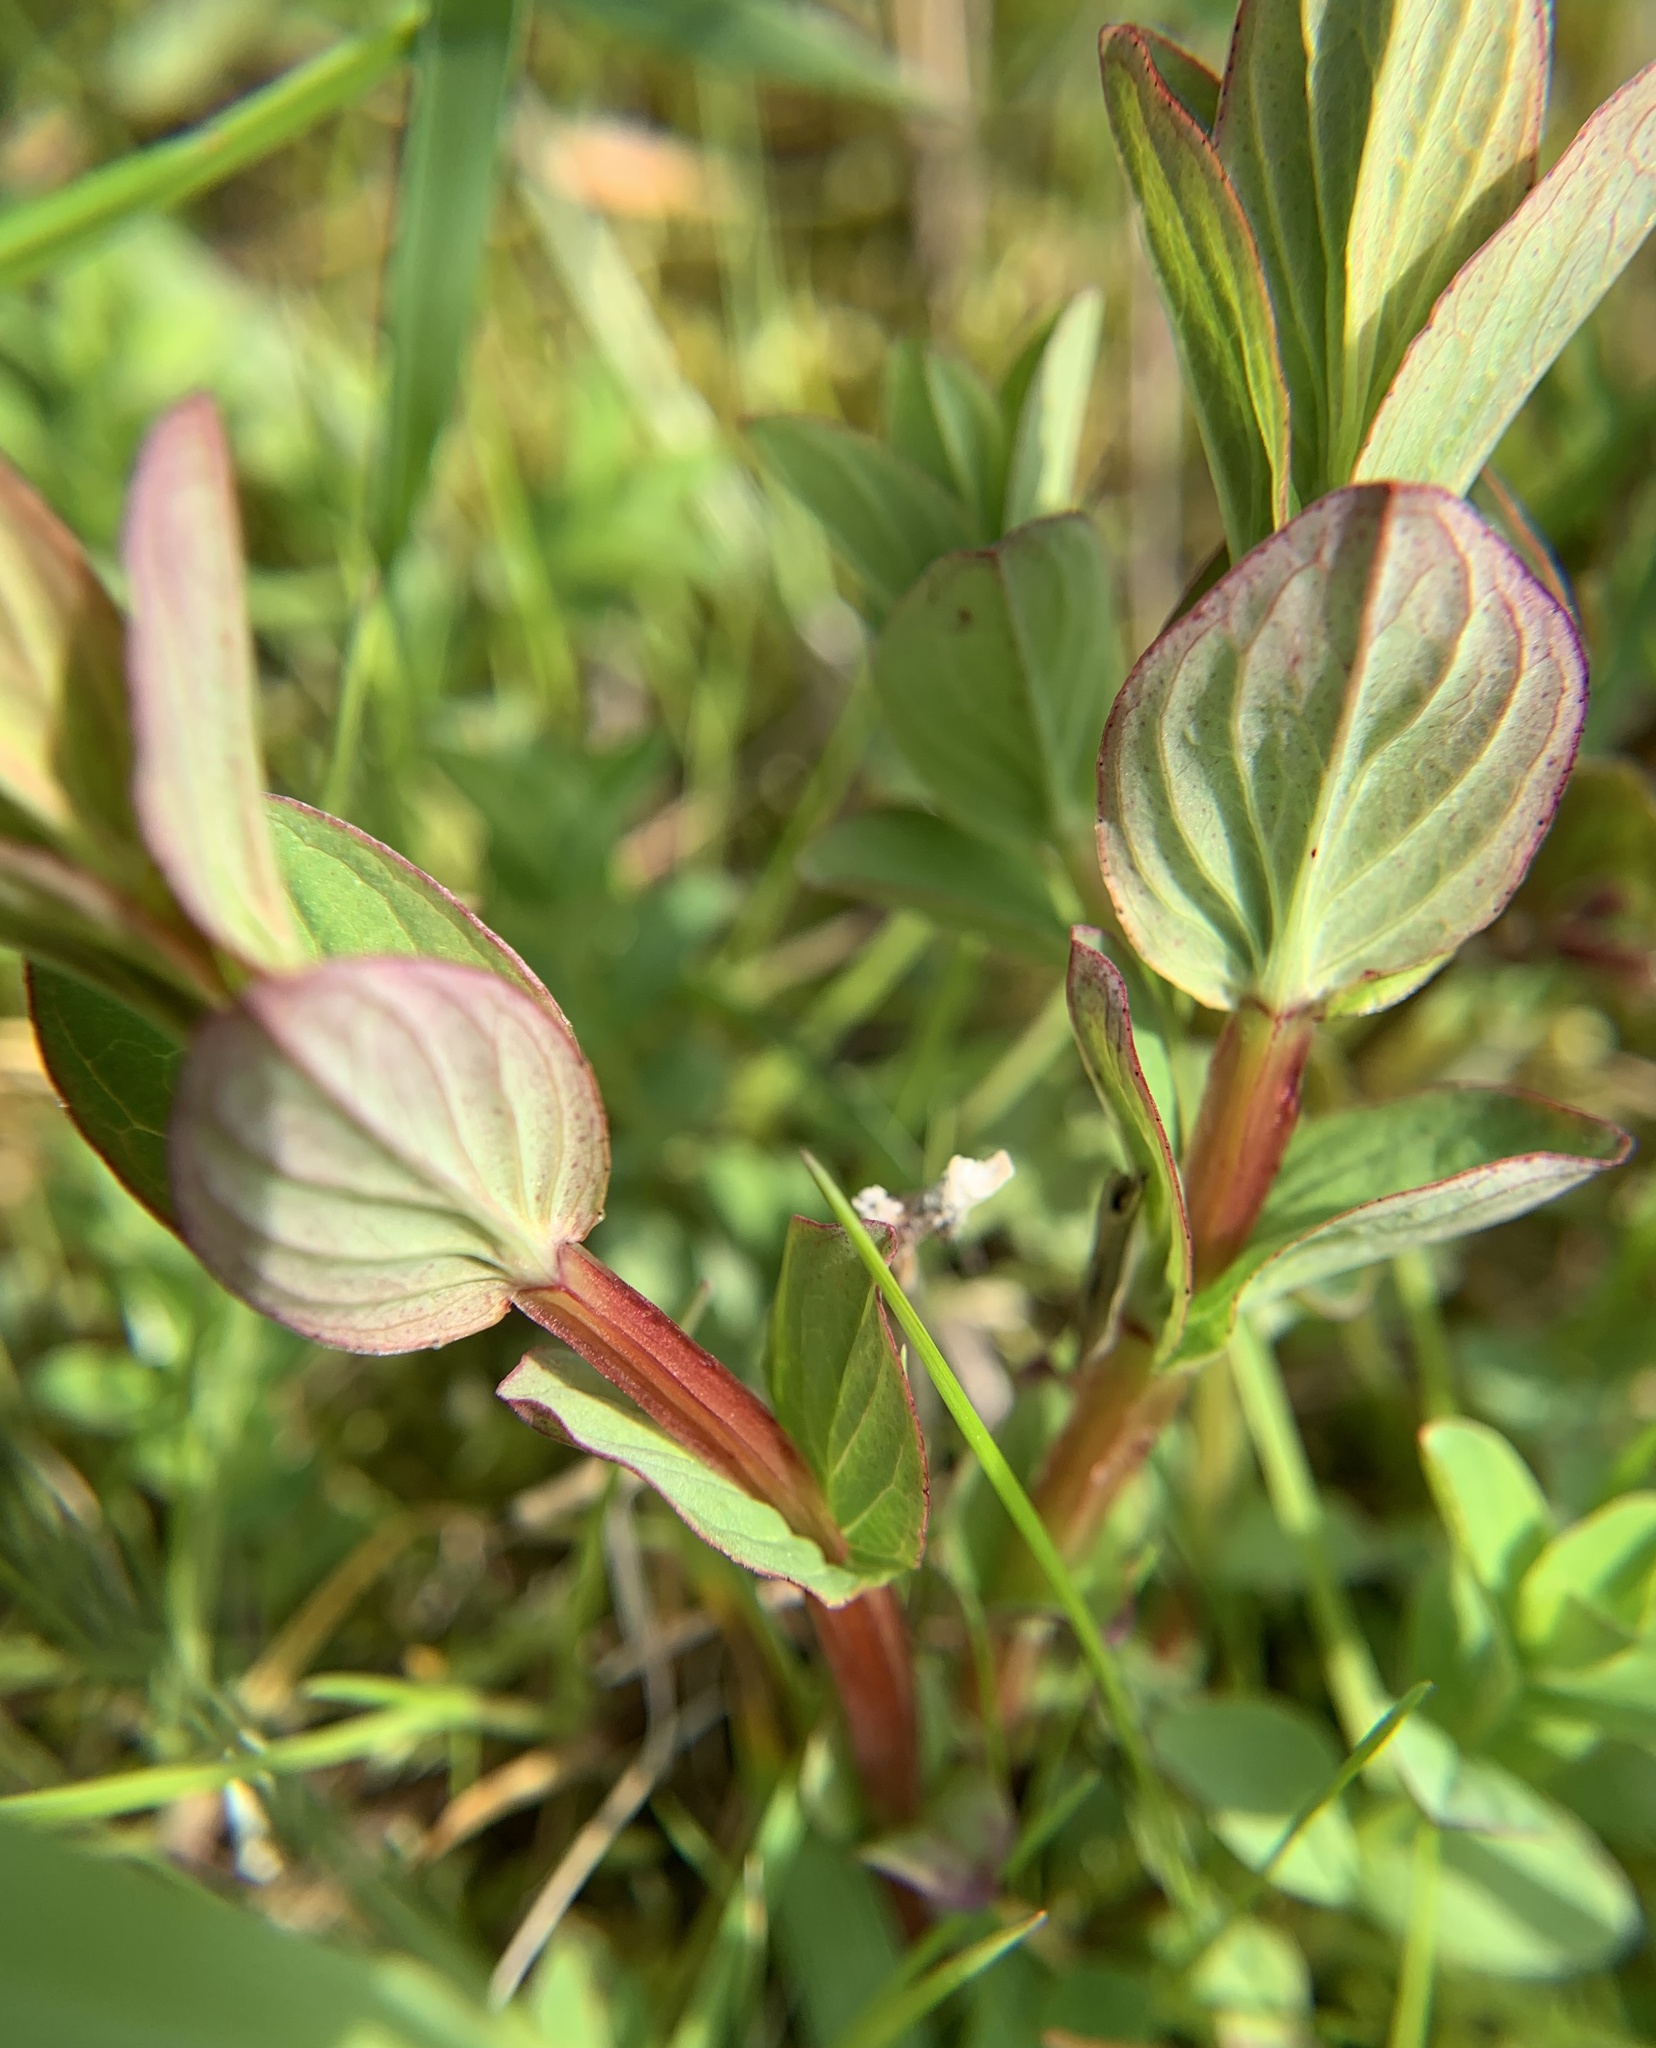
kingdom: Plantae
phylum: Tracheophyta
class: Magnoliopsida
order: Malpighiales
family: Hypericaceae
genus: Hypericum
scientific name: Hypericum tetrapterum
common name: Square-stalked st. john's-wort
